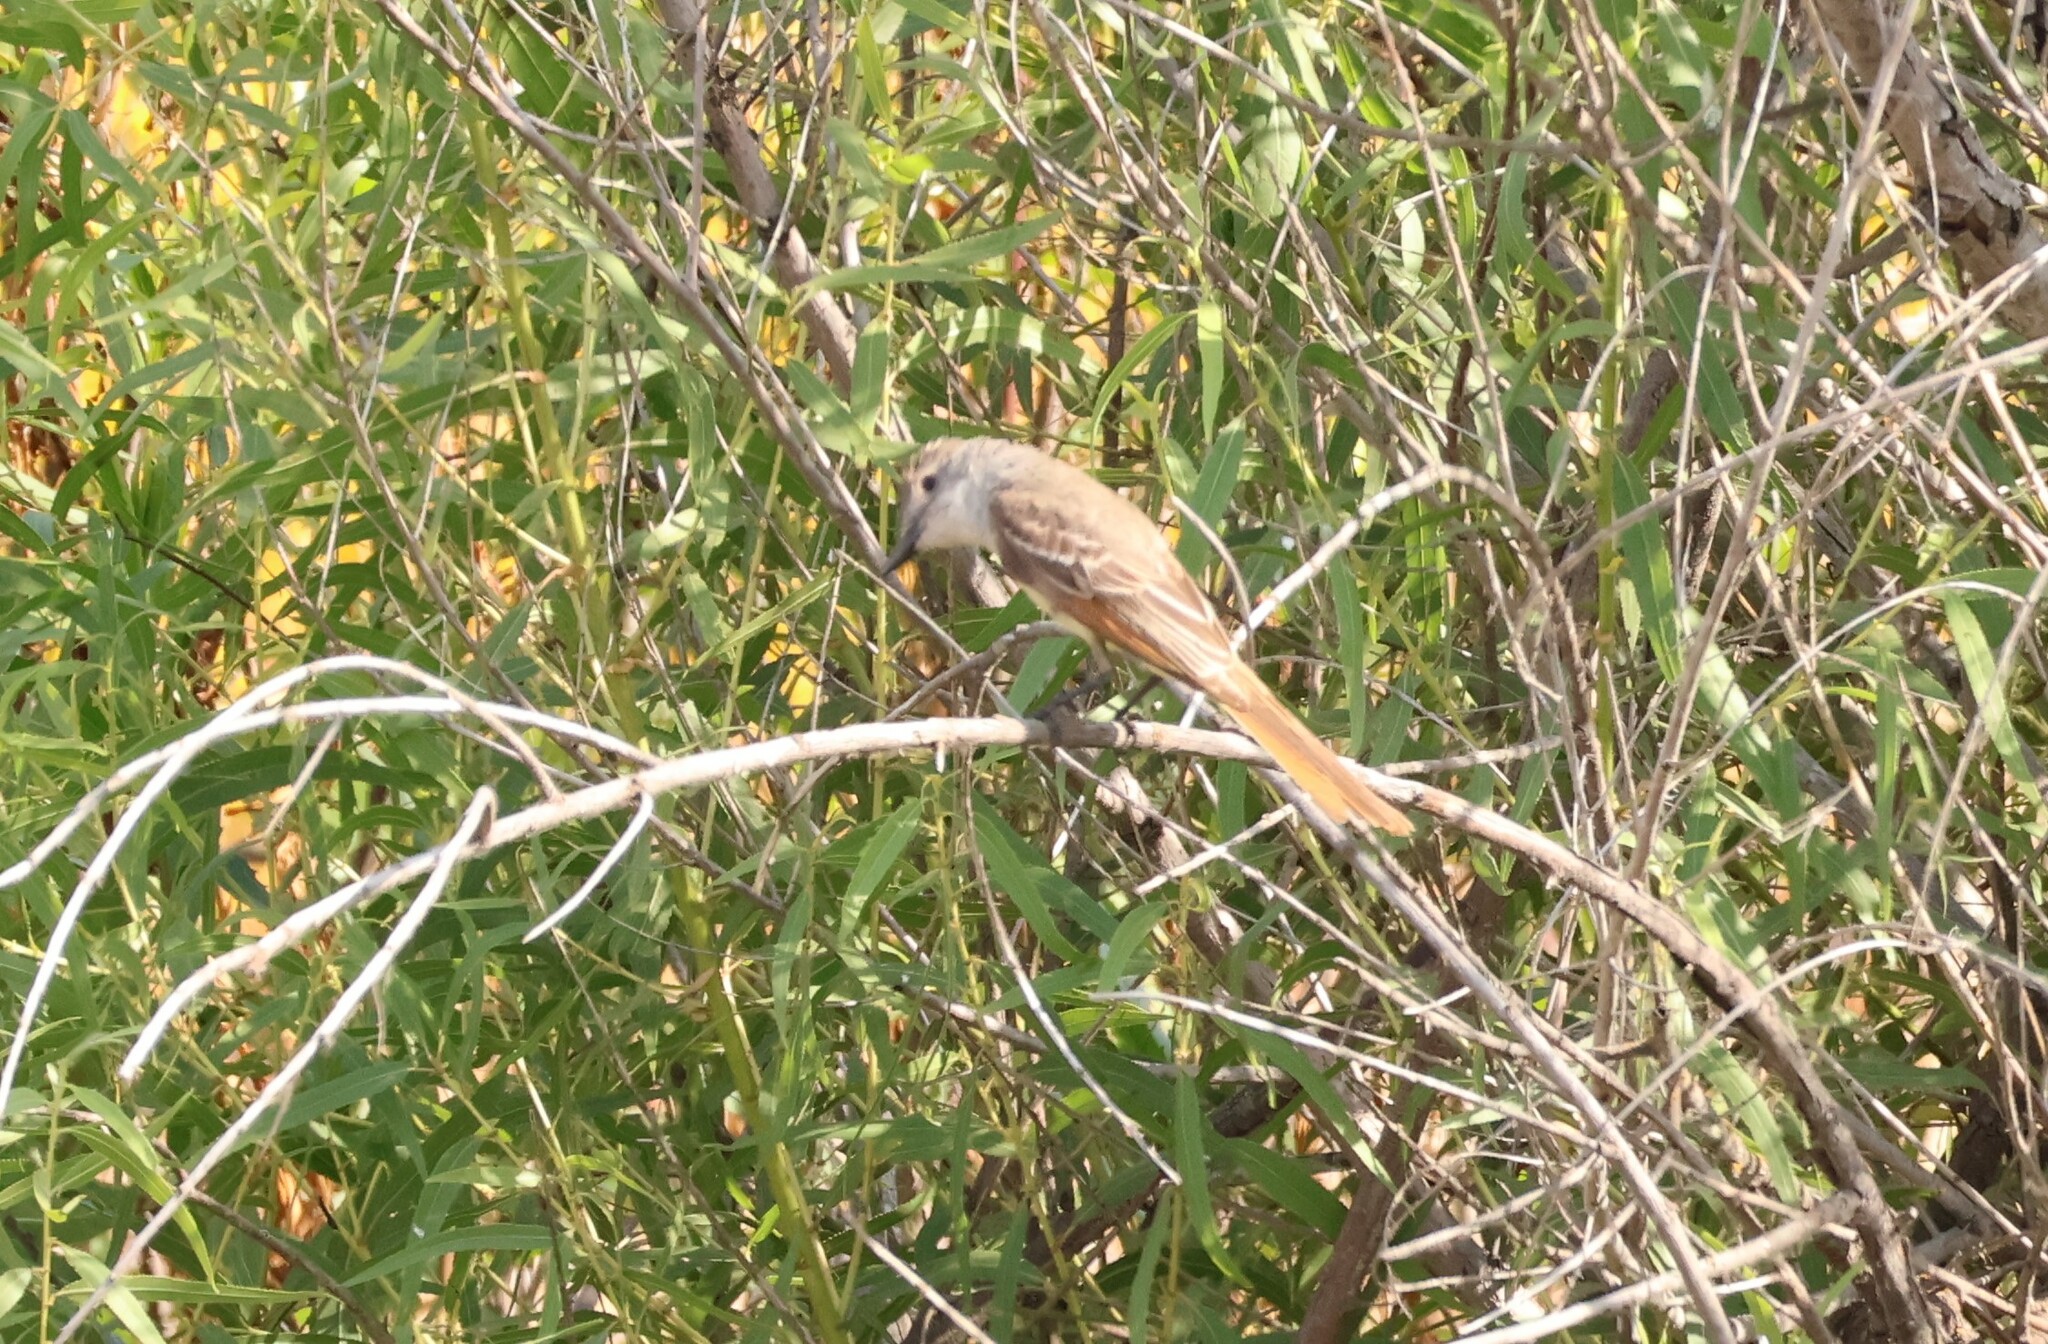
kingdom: Animalia
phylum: Chordata
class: Aves
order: Passeriformes
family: Tyrannidae
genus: Myiarchus
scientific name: Myiarchus cinerascens
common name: Ash-throated flycatcher
